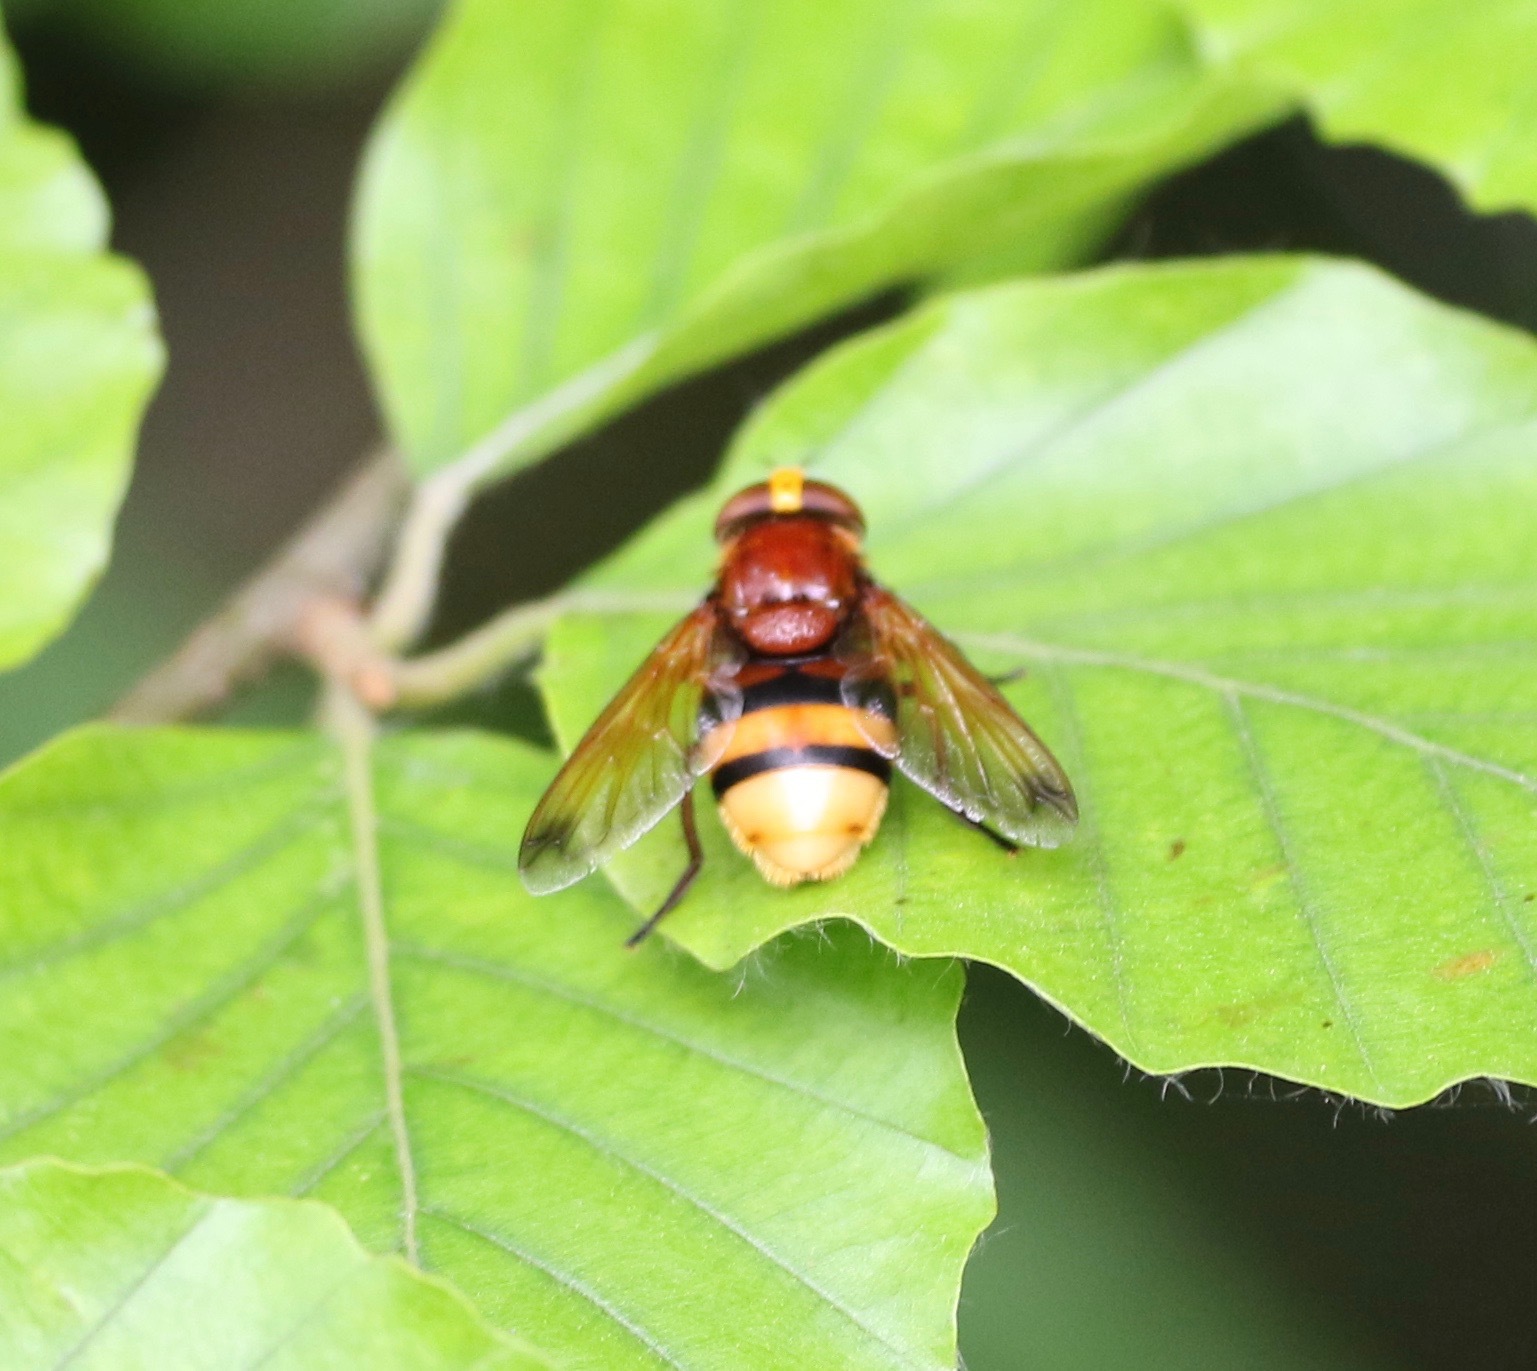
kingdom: Animalia
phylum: Arthropoda
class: Insecta
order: Diptera
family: Syrphidae
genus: Volucella
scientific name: Volucella zonaria
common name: Hornet hoverfly
